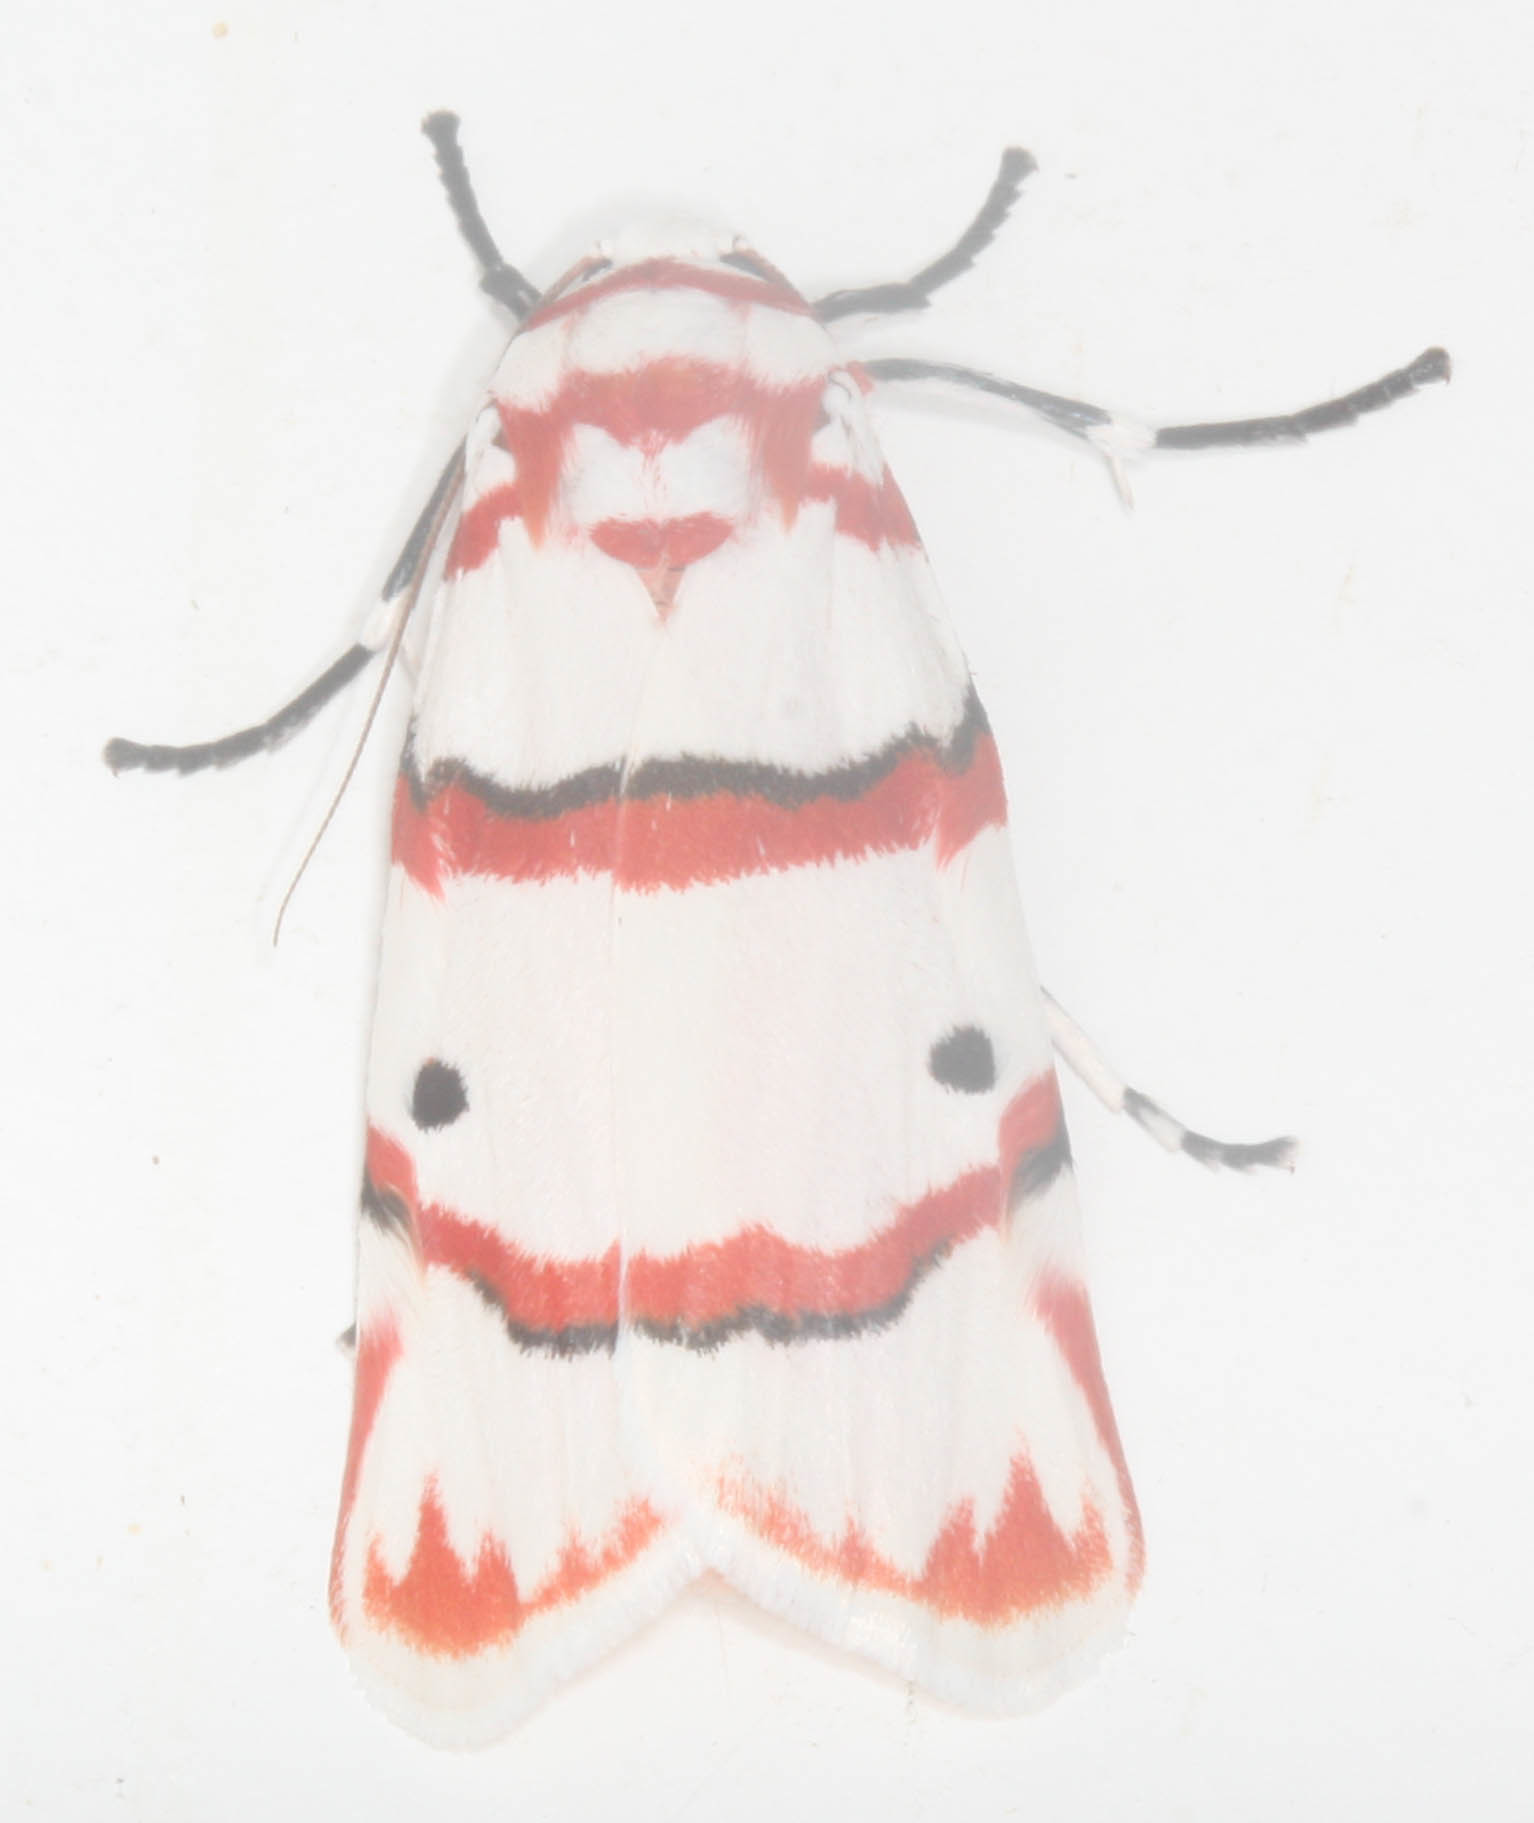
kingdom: Animalia
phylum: Arthropoda
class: Insecta
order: Lepidoptera
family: Erebidae
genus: Cyana
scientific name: Cyana perornata
